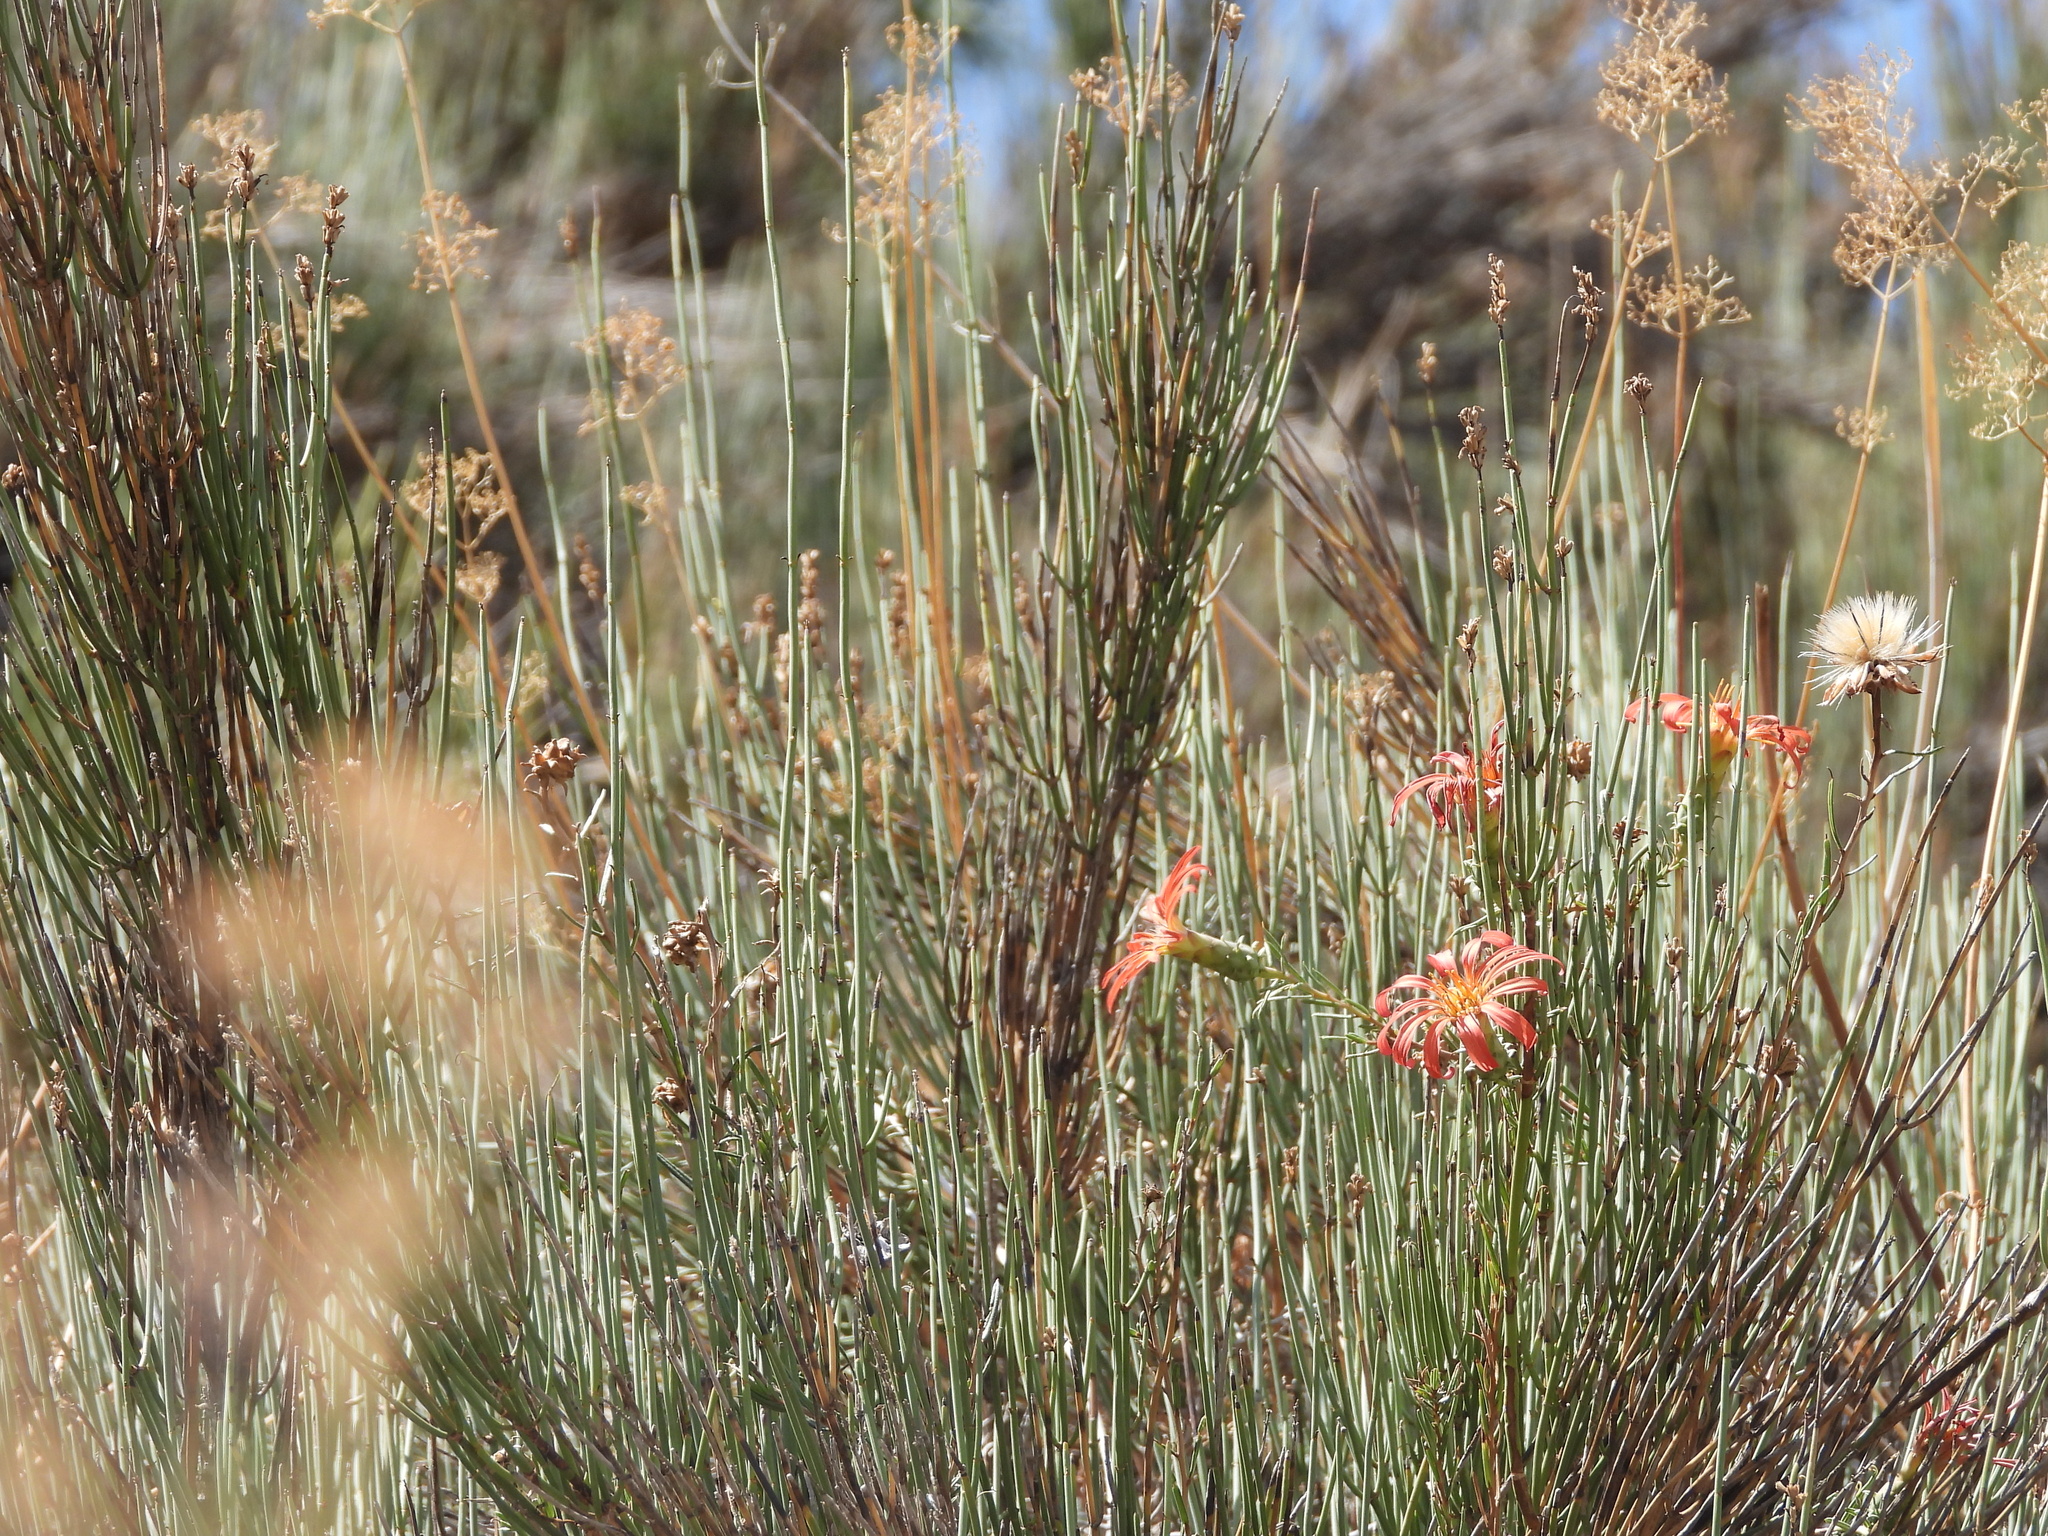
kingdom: Plantae
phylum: Tracheophyta
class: Magnoliopsida
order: Asterales
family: Asteraceae
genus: Mutisia
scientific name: Mutisia subulata
